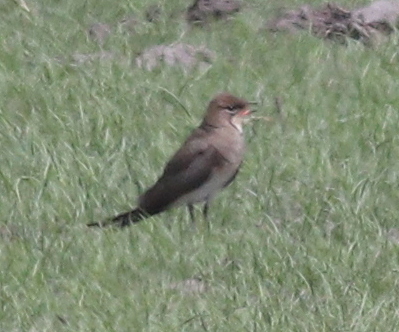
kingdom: Animalia
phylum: Chordata
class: Aves
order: Charadriiformes
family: Glareolidae
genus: Glareola
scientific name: Glareola nordmanni
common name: Black-winged pratincole
